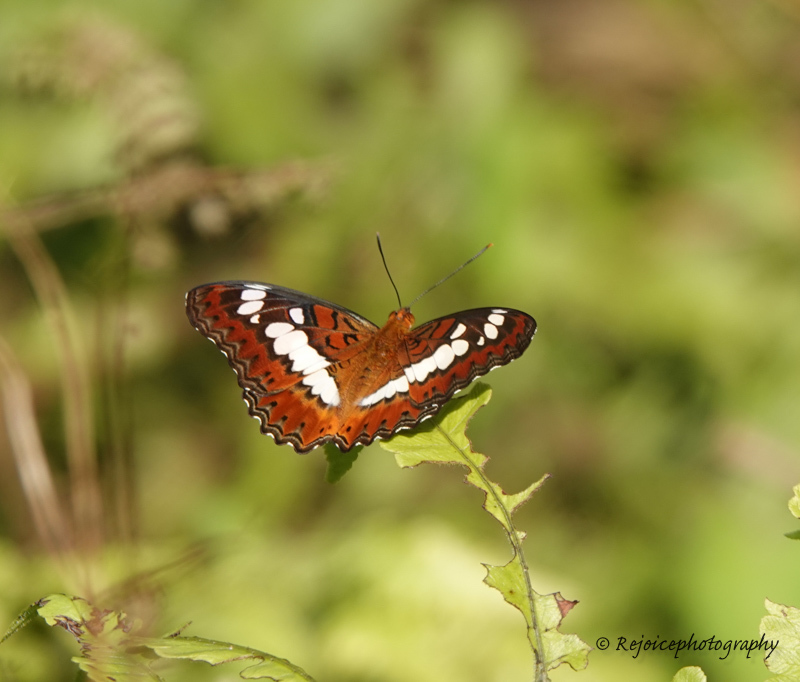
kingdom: Animalia
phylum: Arthropoda
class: Insecta
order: Lepidoptera
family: Nymphalidae
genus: Limenitis
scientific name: Limenitis Moduza procris
